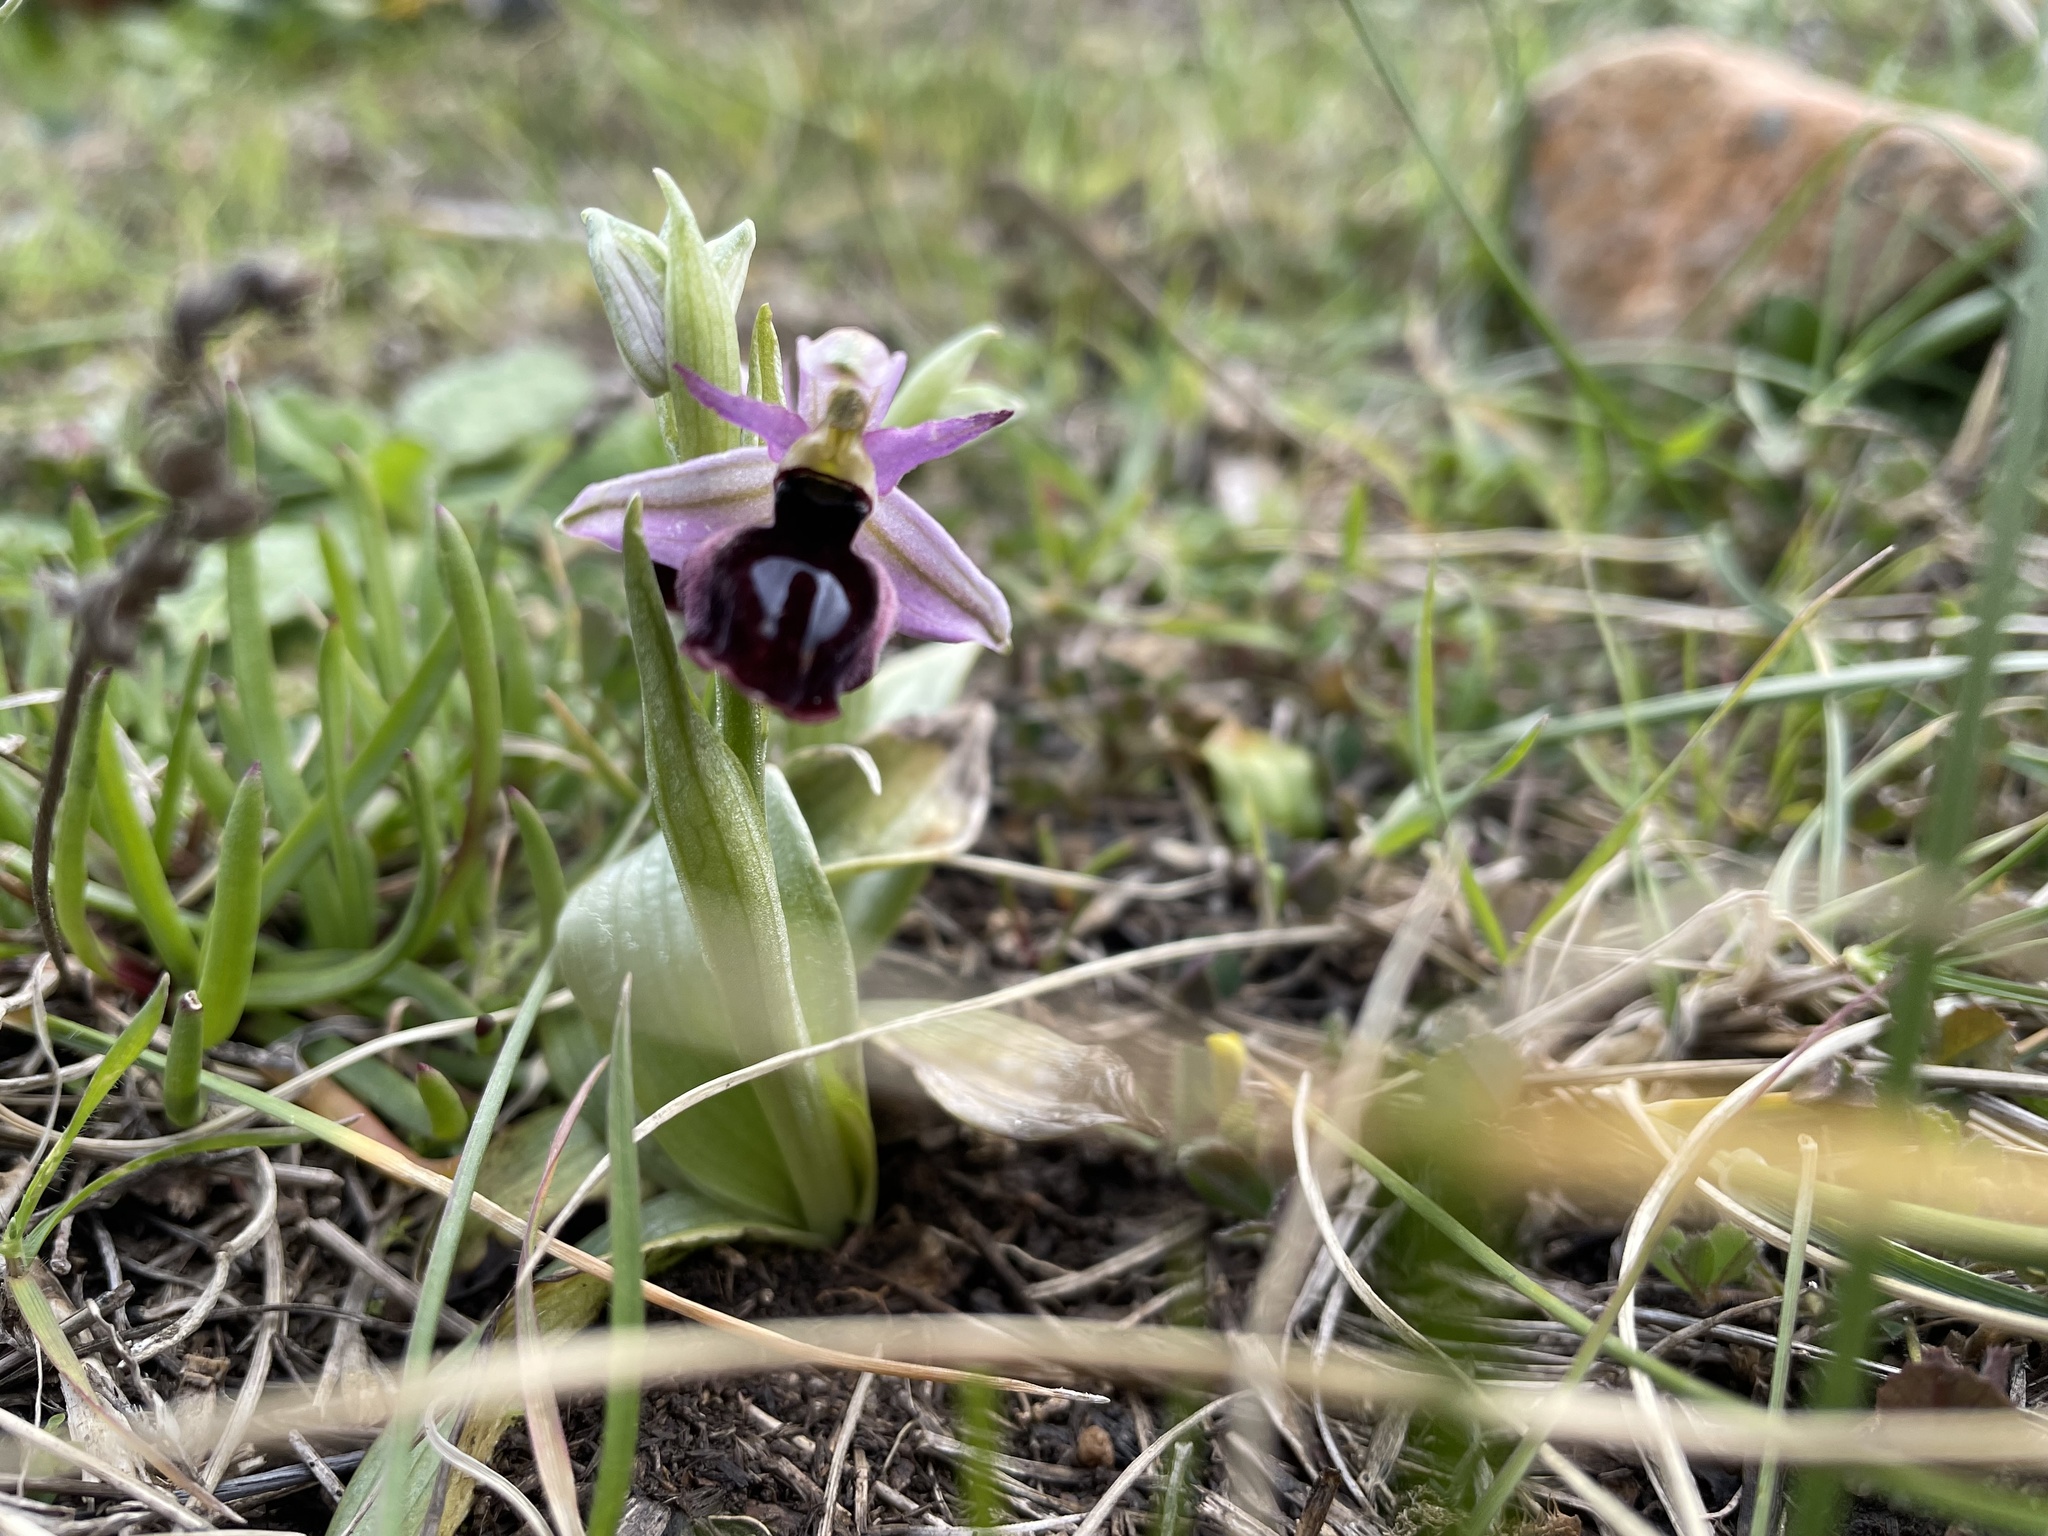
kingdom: Plantae
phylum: Tracheophyta
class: Liliopsida
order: Asparagales
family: Orchidaceae
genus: Ophrys
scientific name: Ophrys ferrum-equinum
